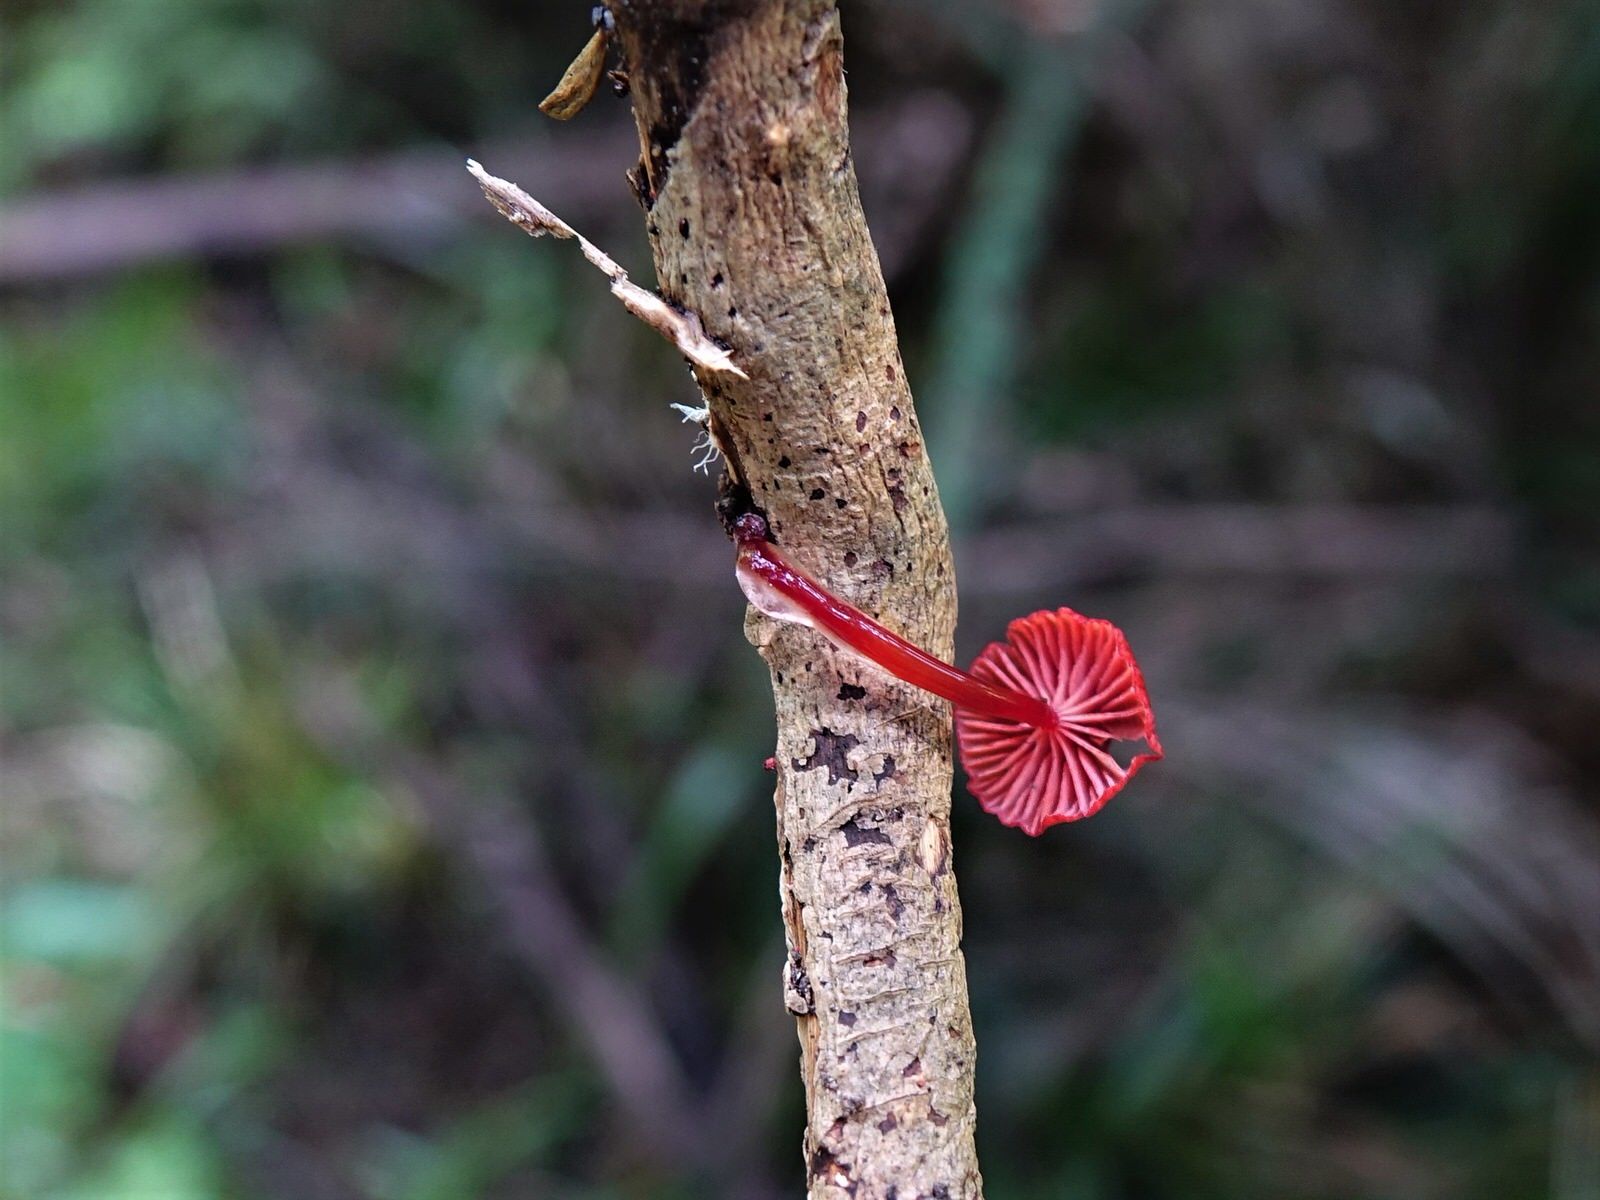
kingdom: Fungi
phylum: Basidiomycota
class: Agaricomycetes
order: Agaricales
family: Mycenaceae
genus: Cruentomycena
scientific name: Cruentomycena viscidocruenta
